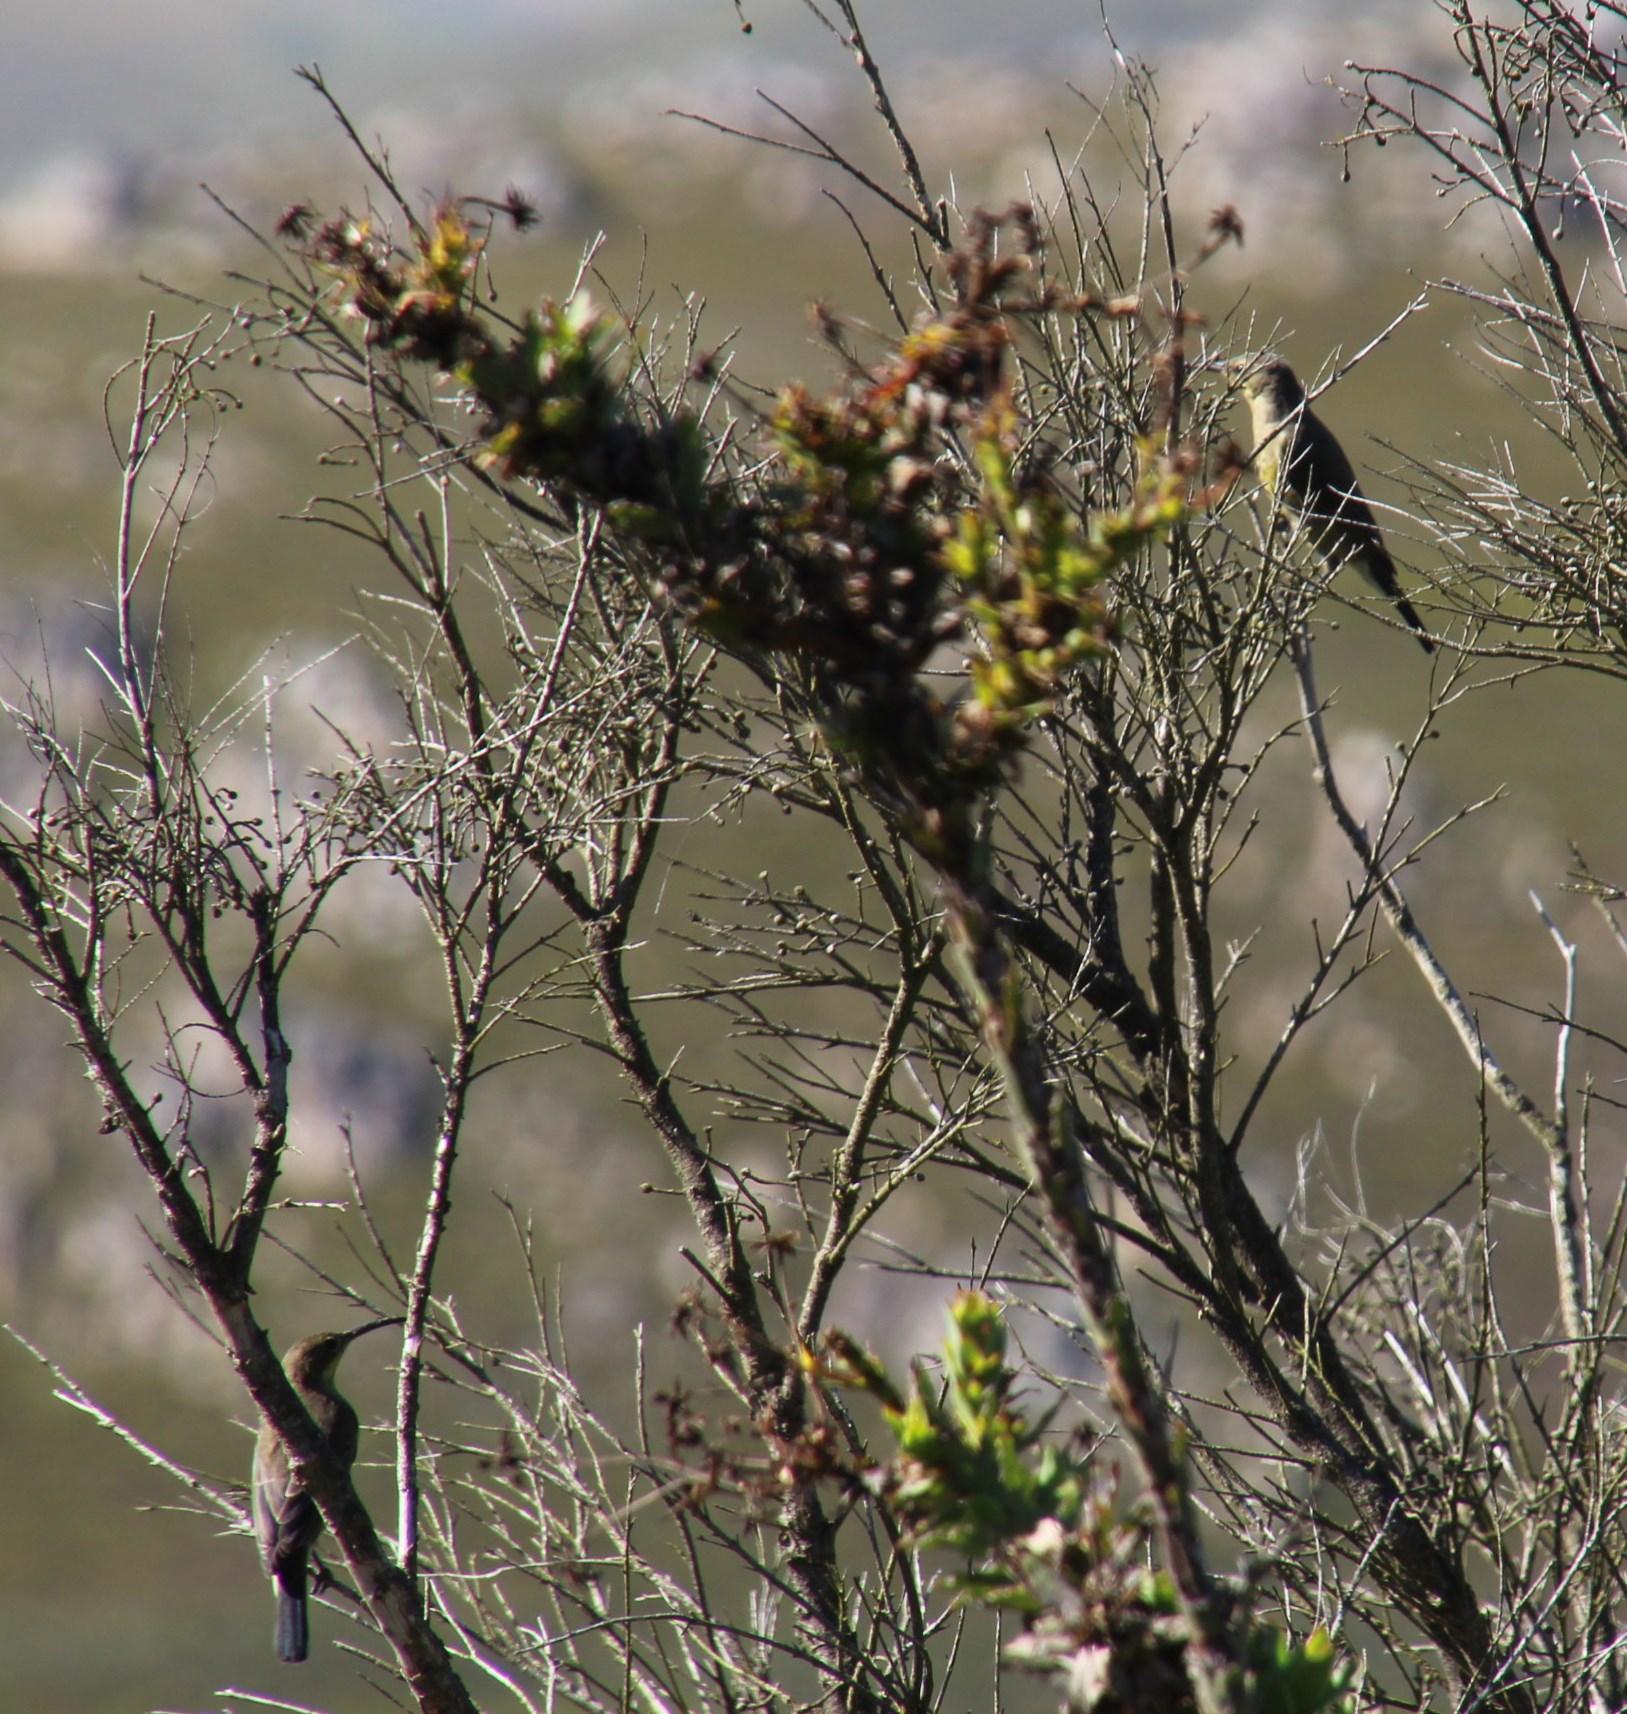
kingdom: Animalia
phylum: Chordata
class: Aves
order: Passeriformes
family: Nectariniidae
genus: Anthobaphes
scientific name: Anthobaphes violacea
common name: Orange-breasted sunbird
